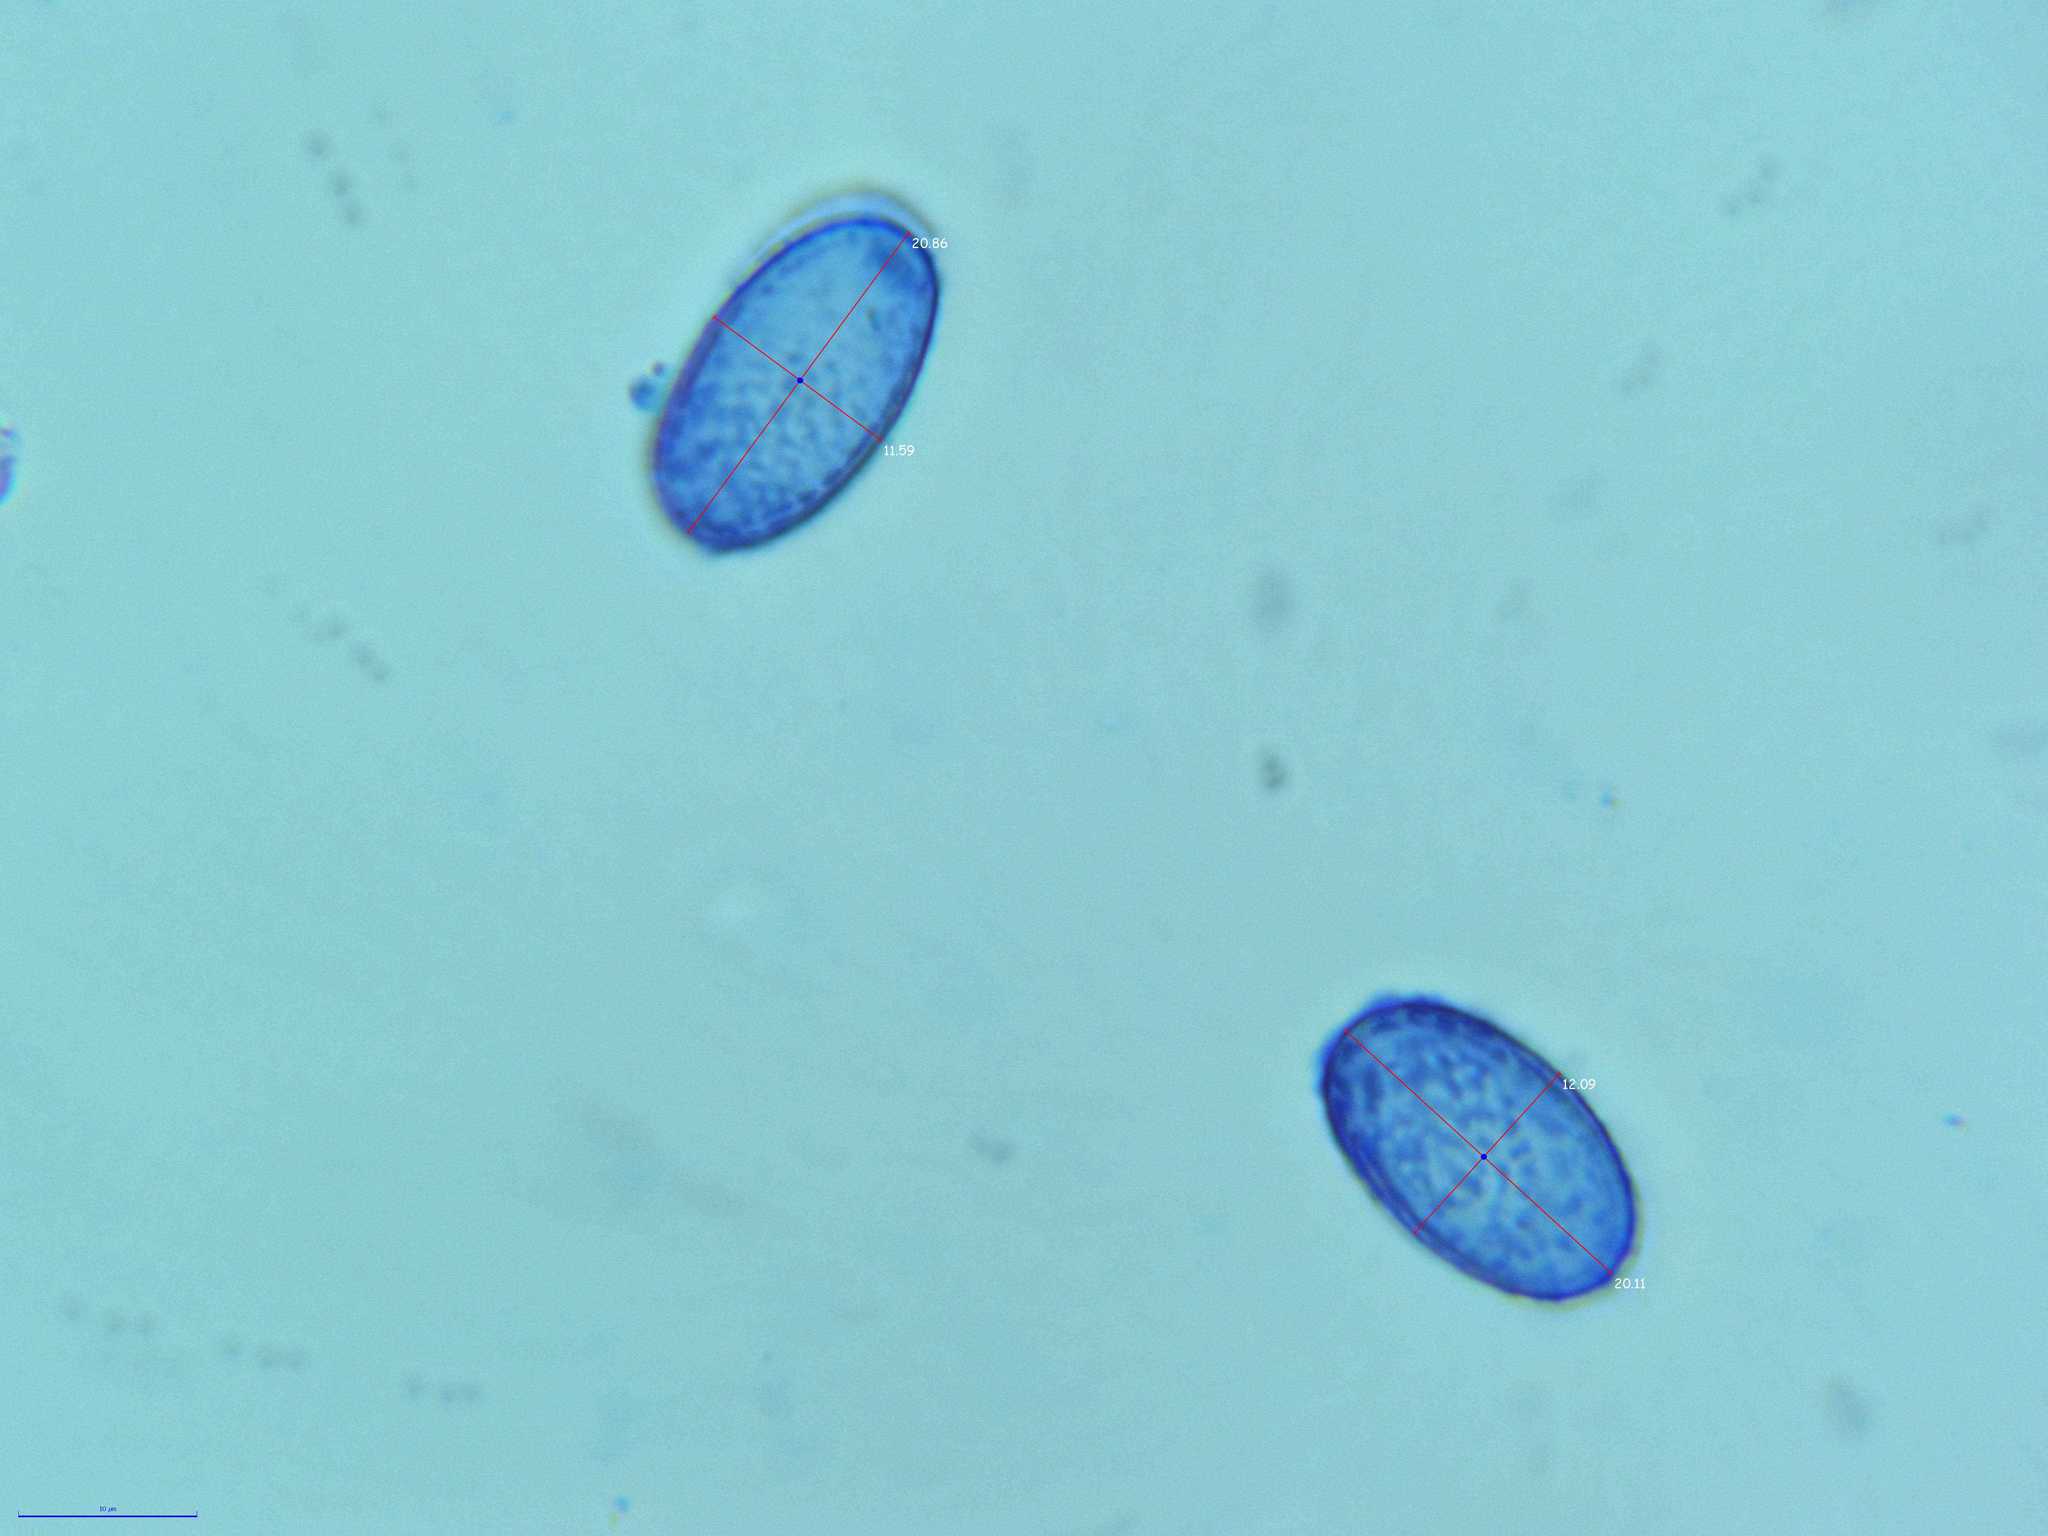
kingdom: Fungi
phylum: Ascomycota
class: Pezizomycetes
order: Pezizales
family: Pyronemataceae
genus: Scutellinia
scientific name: Scutellinia olivascens
